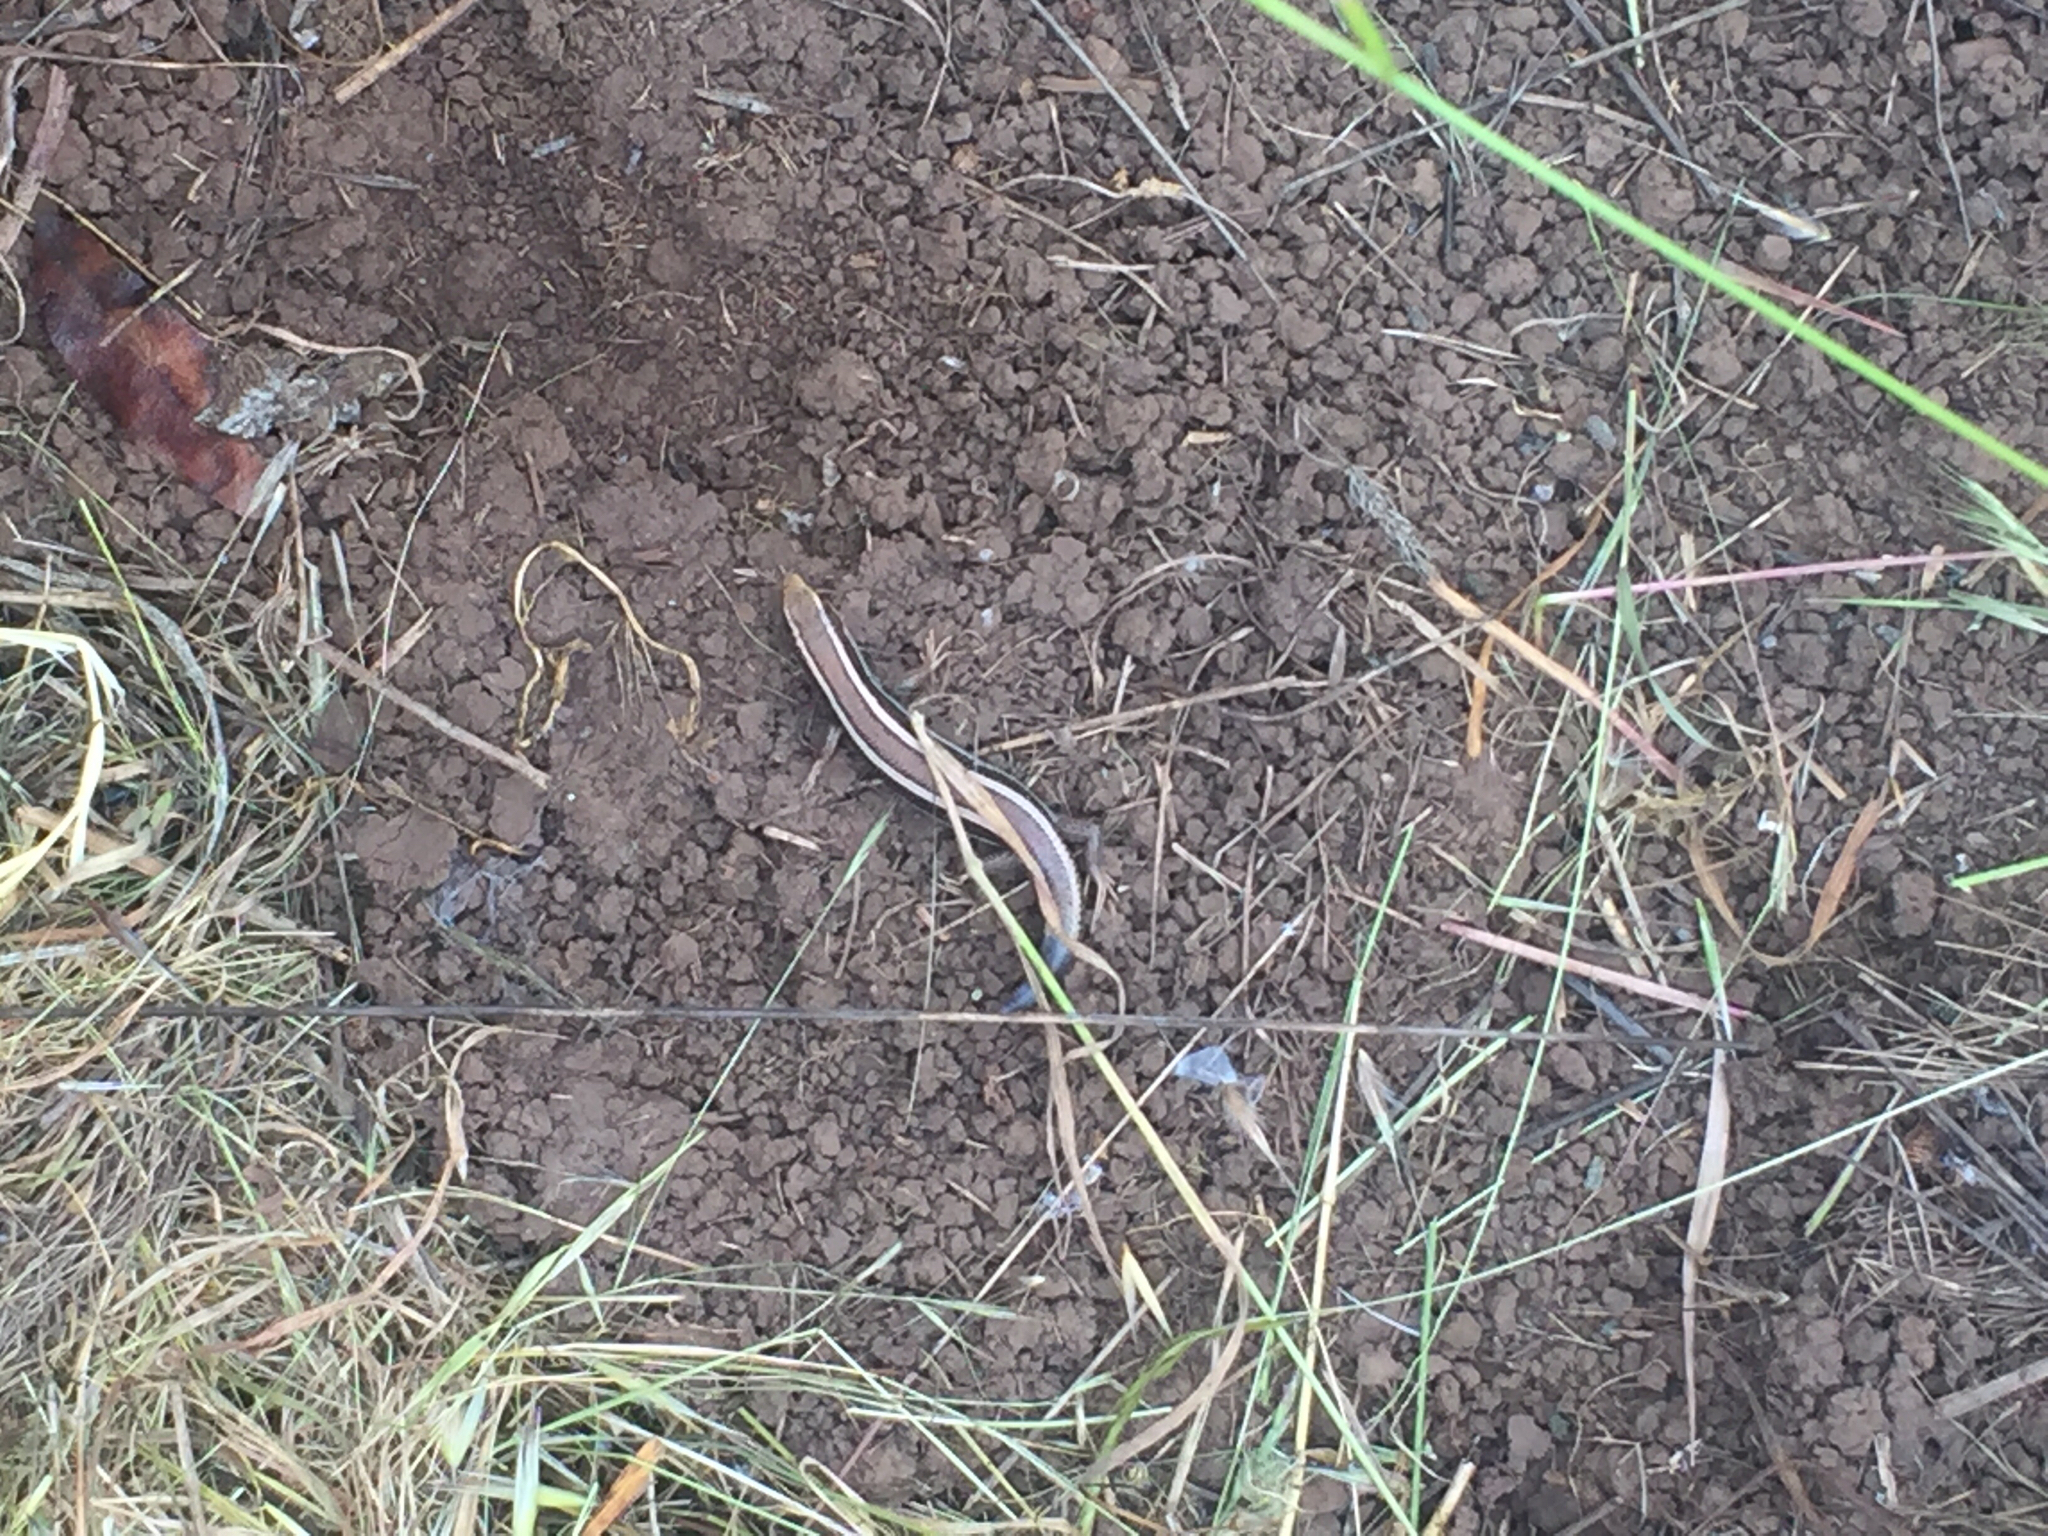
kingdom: Animalia
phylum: Chordata
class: Squamata
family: Scincidae
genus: Plestiodon
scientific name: Plestiodon skiltonianus
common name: Coronado island skink [interparietalis]
